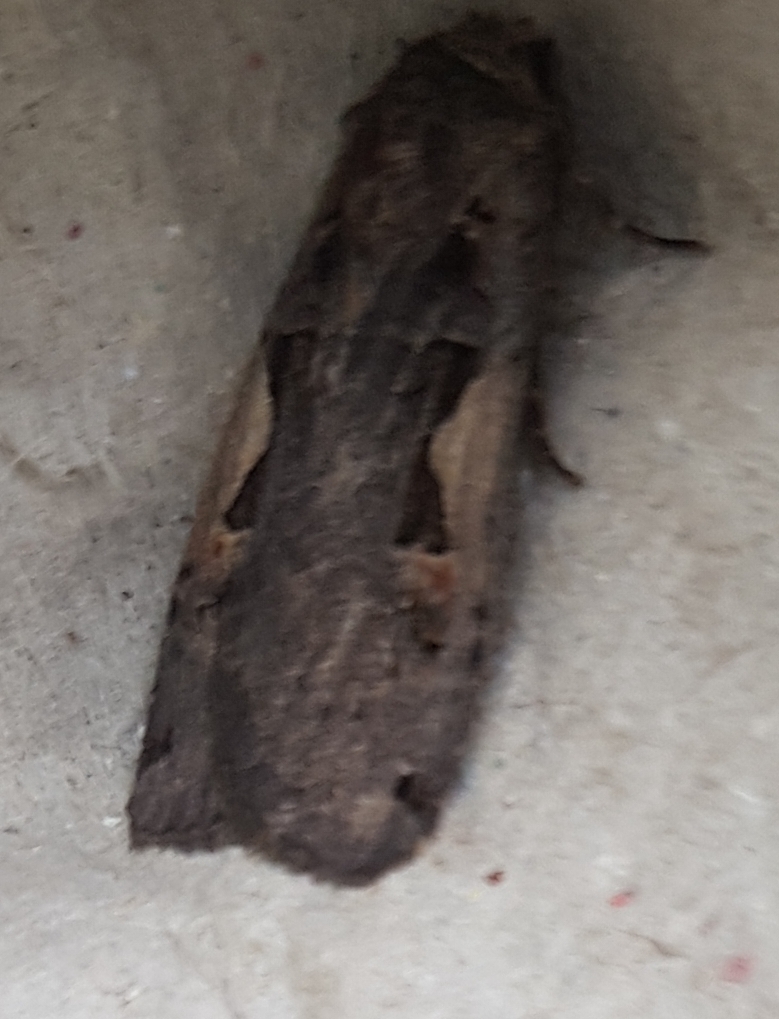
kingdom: Animalia
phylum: Arthropoda
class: Insecta
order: Lepidoptera
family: Noctuidae
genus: Xestia
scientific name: Xestia c-nigrum
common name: Setaceous hebrew character
